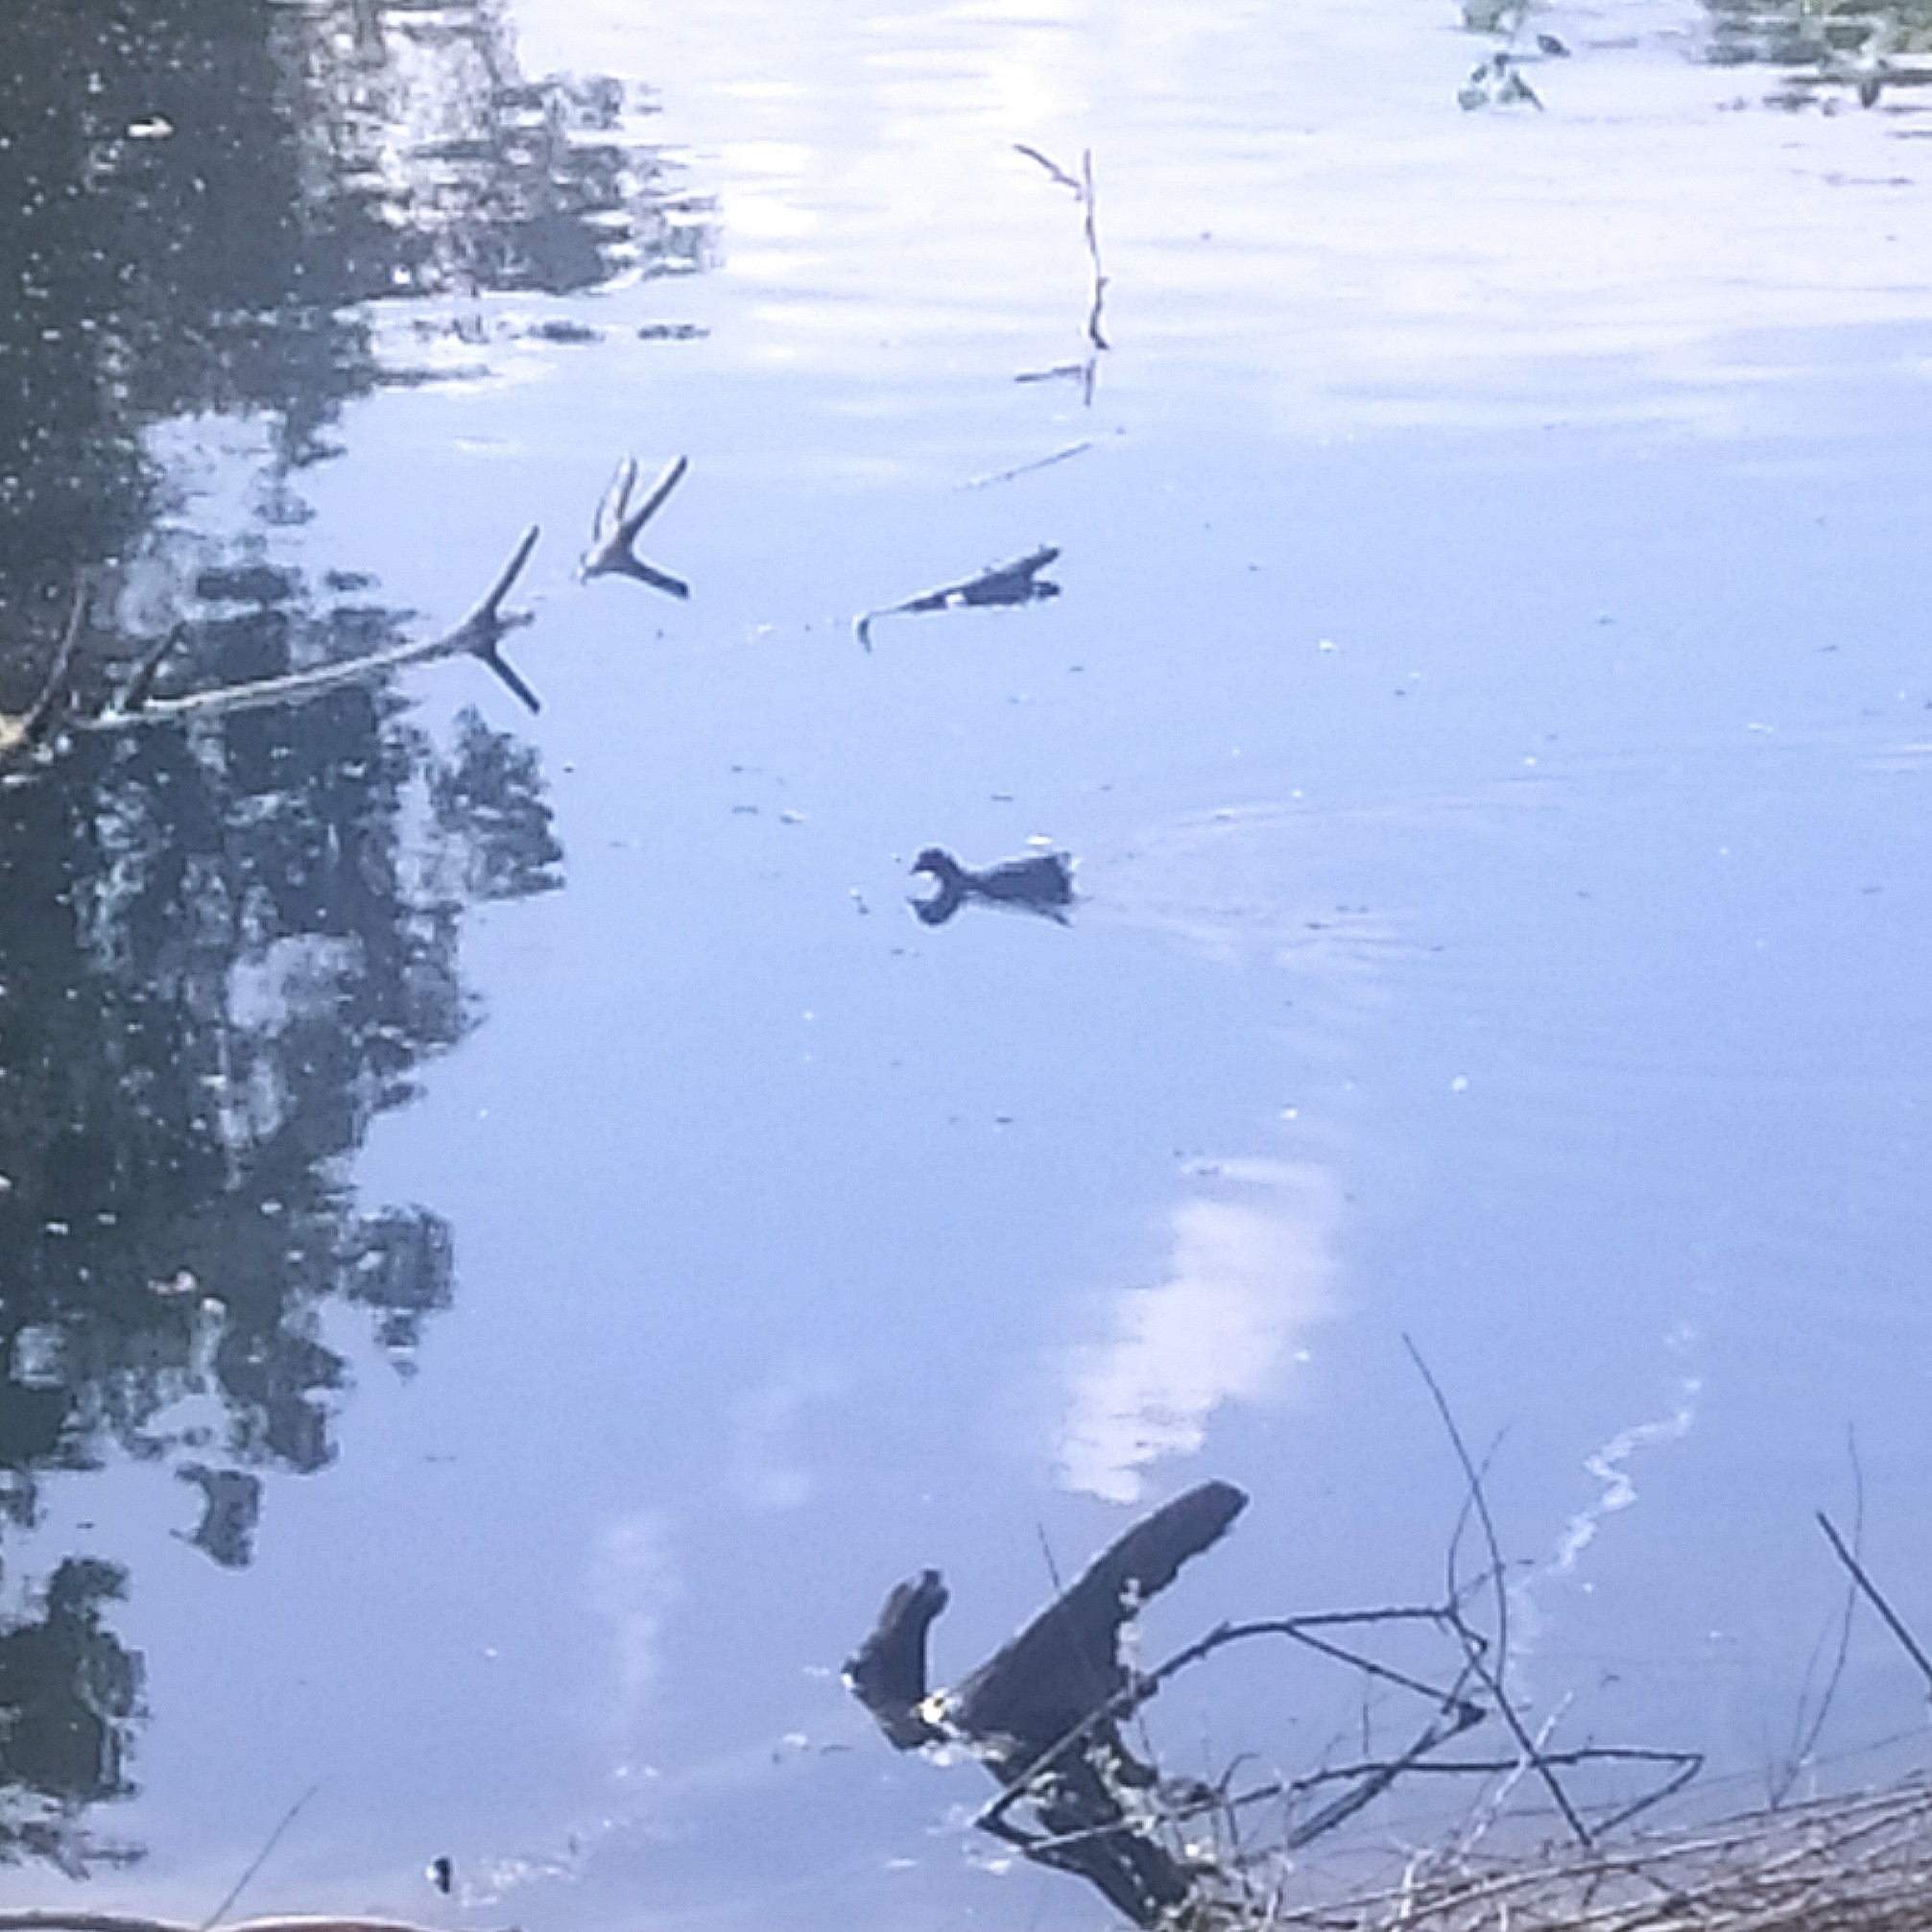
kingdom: Animalia
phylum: Chordata
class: Aves
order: Gruiformes
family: Rallidae
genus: Gallinula
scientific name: Gallinula chloropus
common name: Common moorhen
